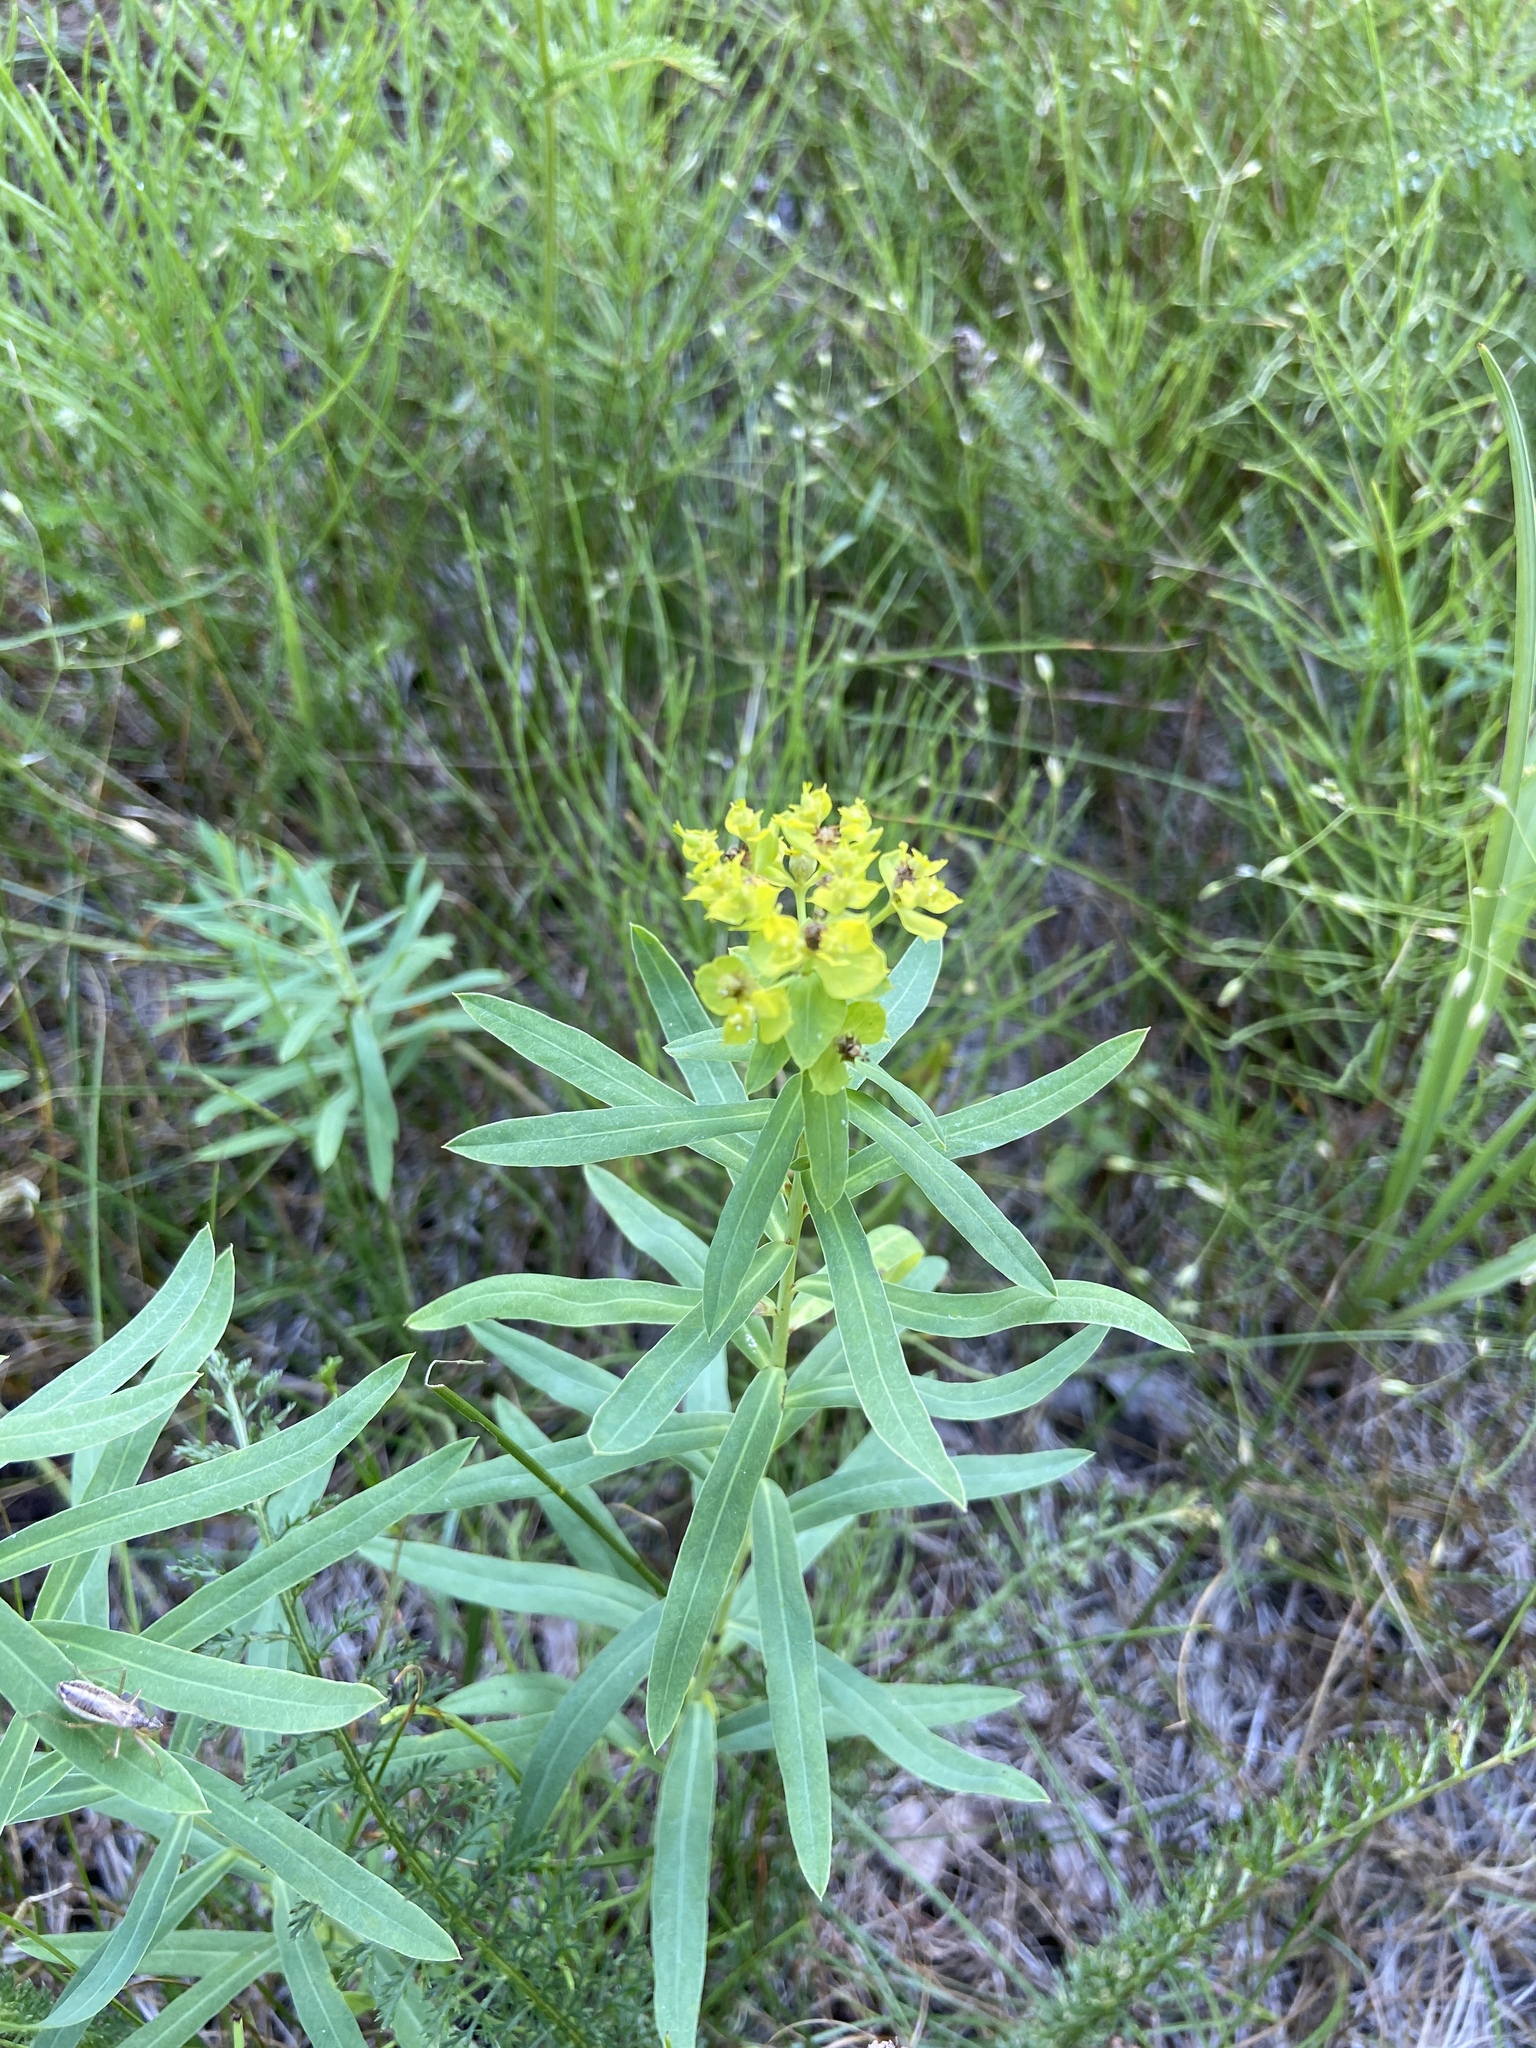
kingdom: Plantae
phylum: Tracheophyta
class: Magnoliopsida
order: Malpighiales
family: Euphorbiaceae
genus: Euphorbia
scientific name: Euphorbia virgata
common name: Leafy spurge
